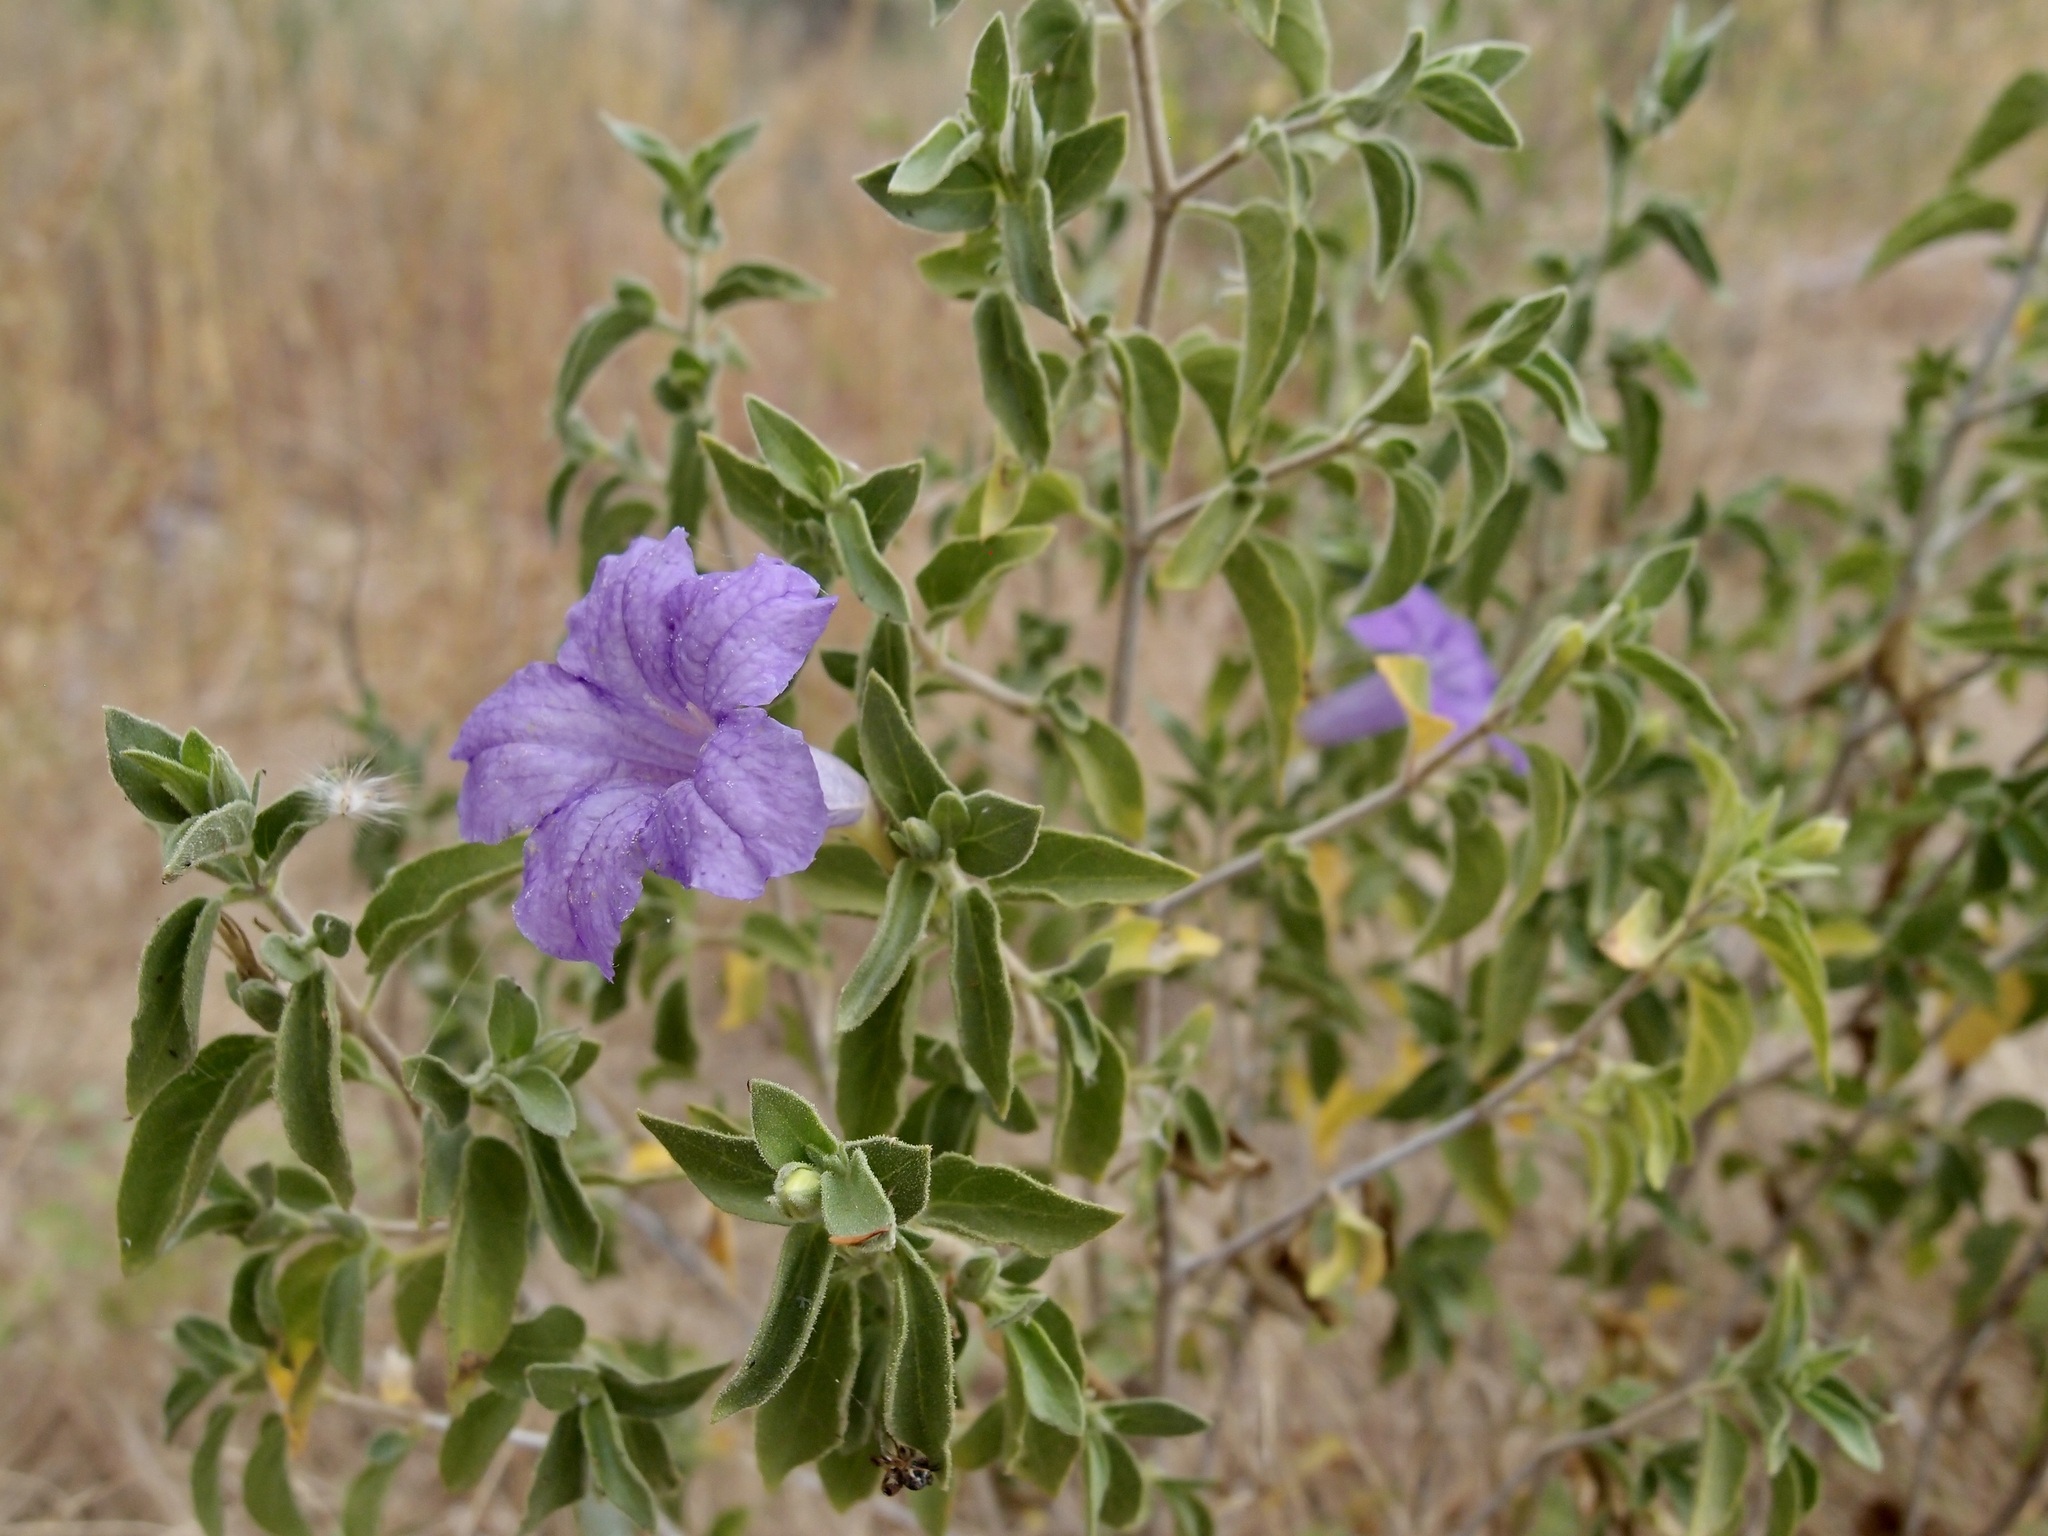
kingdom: Plantae
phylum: Tracheophyta
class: Magnoliopsida
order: Lamiales
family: Acanthaceae
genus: Ruellia
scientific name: Ruellia californica
